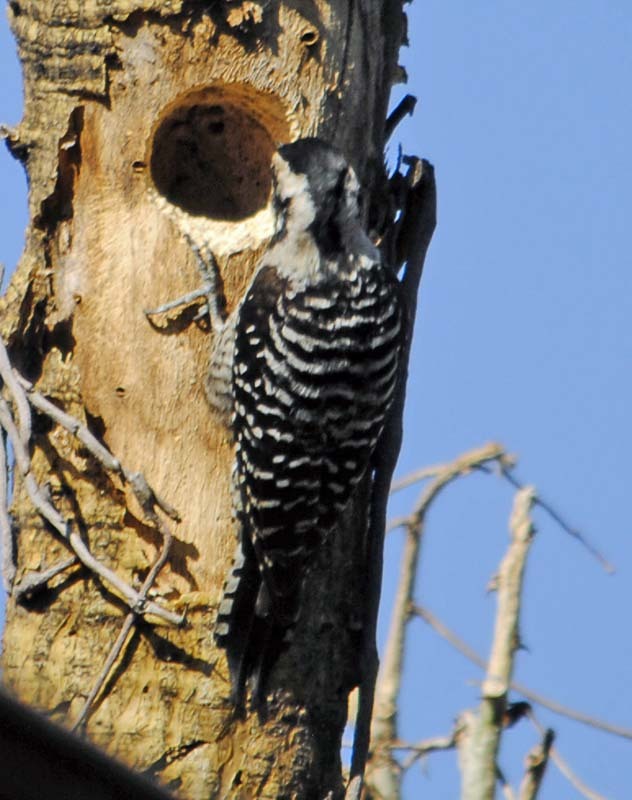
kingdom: Animalia
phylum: Chordata
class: Aves
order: Piciformes
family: Picidae
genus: Dryobates
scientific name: Dryobates scalaris
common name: Ladder-backed woodpecker
